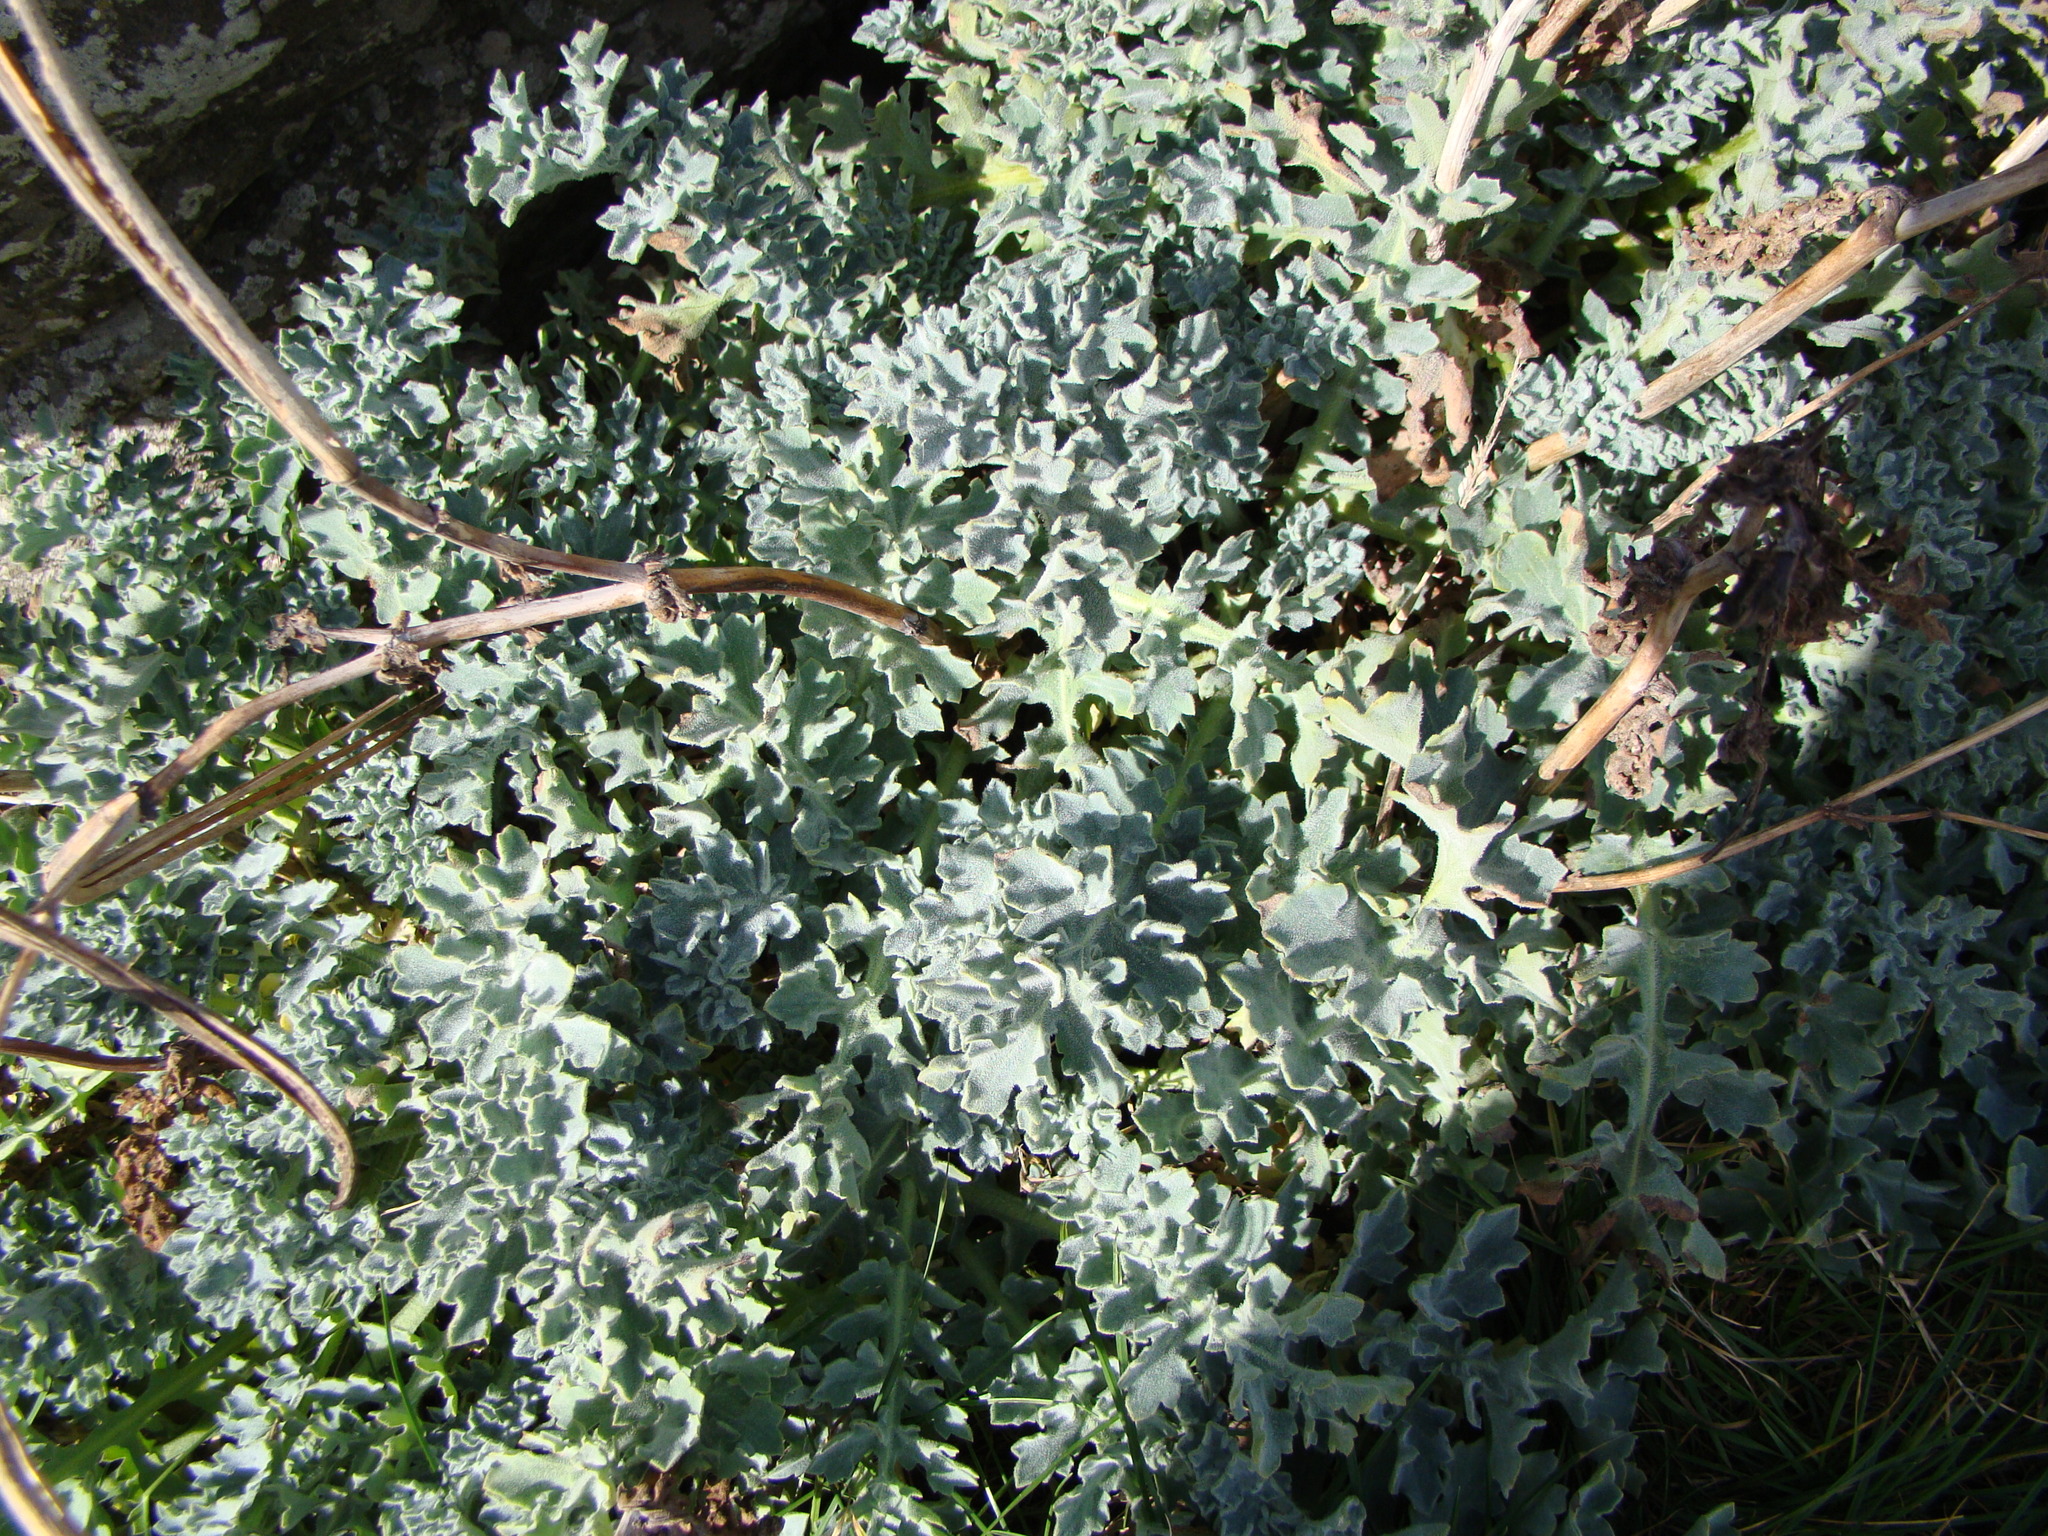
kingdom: Plantae
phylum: Tracheophyta
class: Magnoliopsida
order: Ranunculales
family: Papaveraceae
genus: Glaucium
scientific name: Glaucium flavum
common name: Yellow horned-poppy
